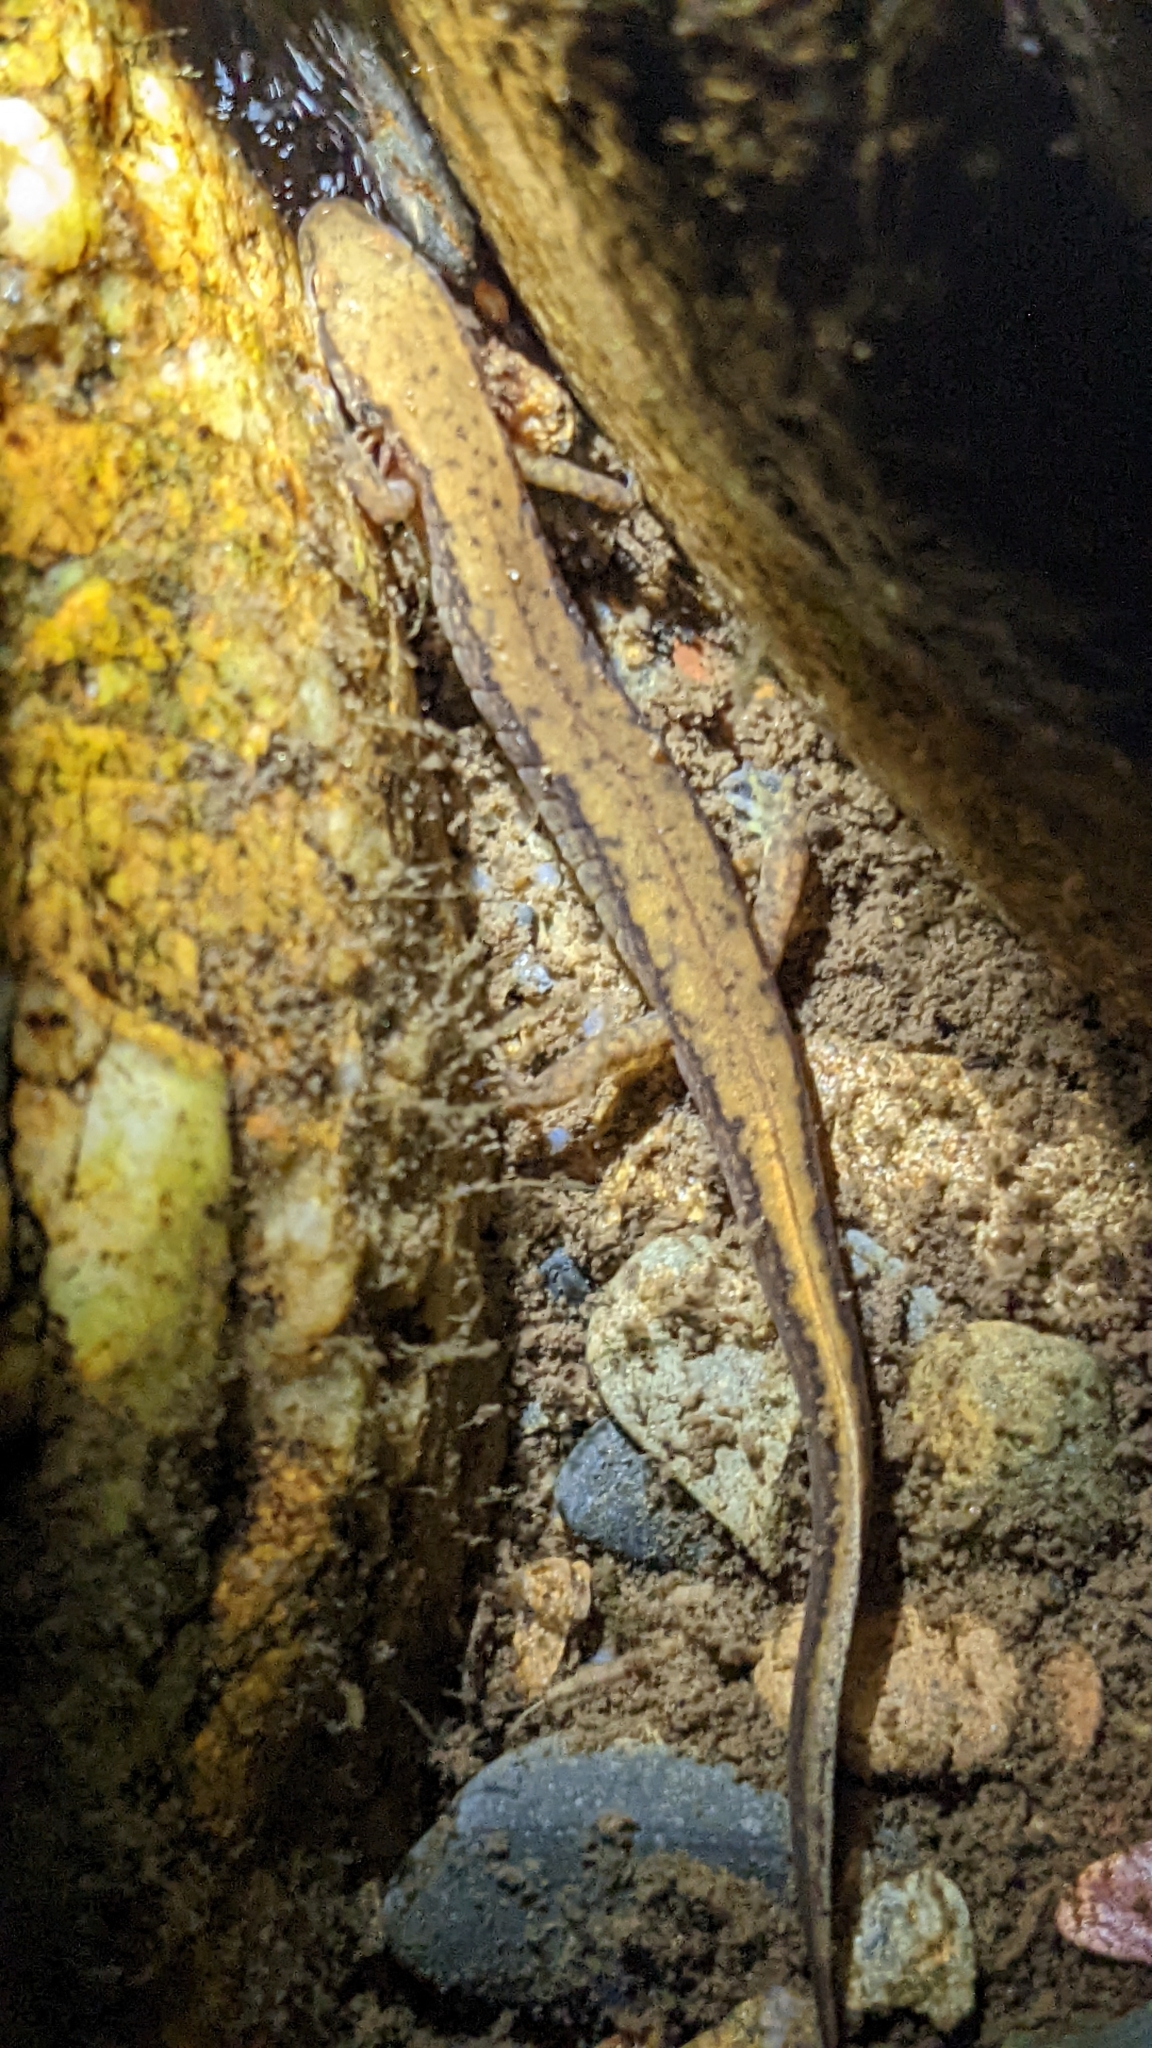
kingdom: Animalia
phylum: Chordata
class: Amphibia
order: Caudata
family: Plethodontidae
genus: Eurycea
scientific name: Eurycea junaluska
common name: Junaluska salamander
